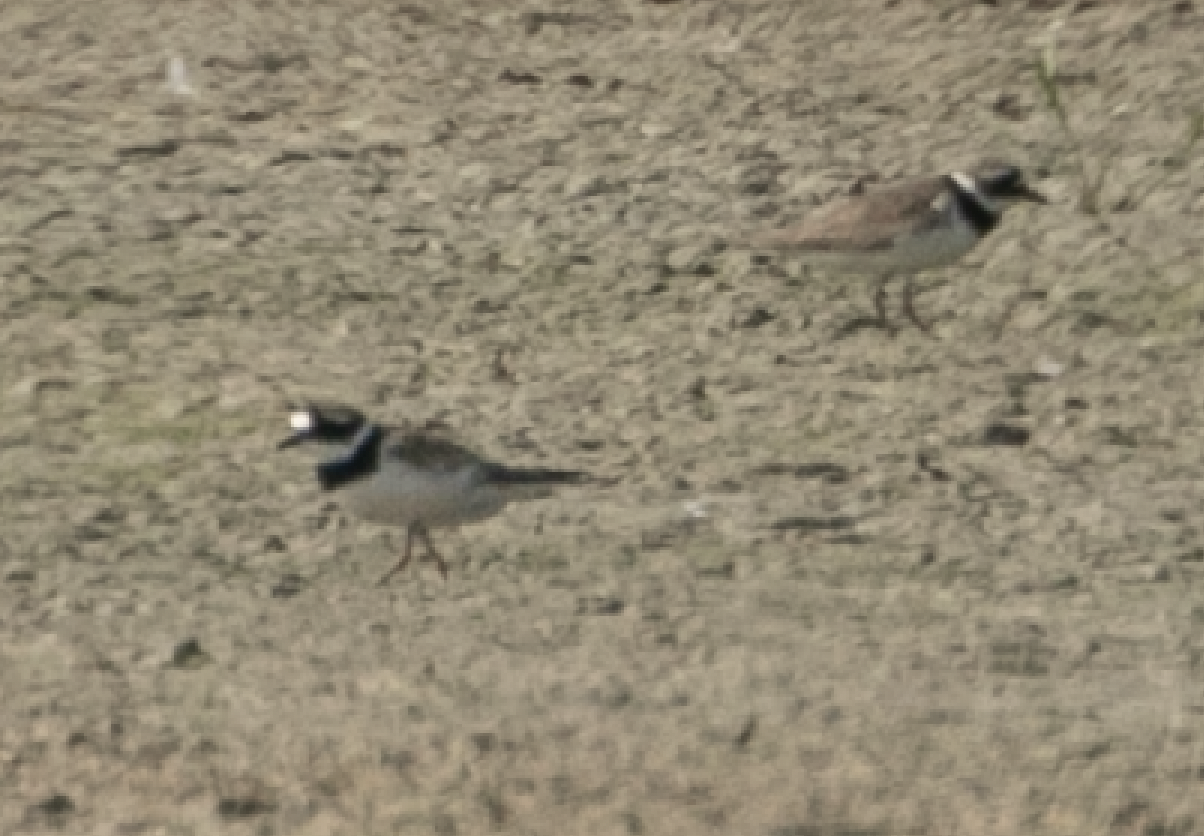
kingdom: Animalia
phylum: Chordata
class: Aves
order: Charadriiformes
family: Charadriidae
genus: Charadrius
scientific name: Charadrius hiaticula
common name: Common ringed plover
